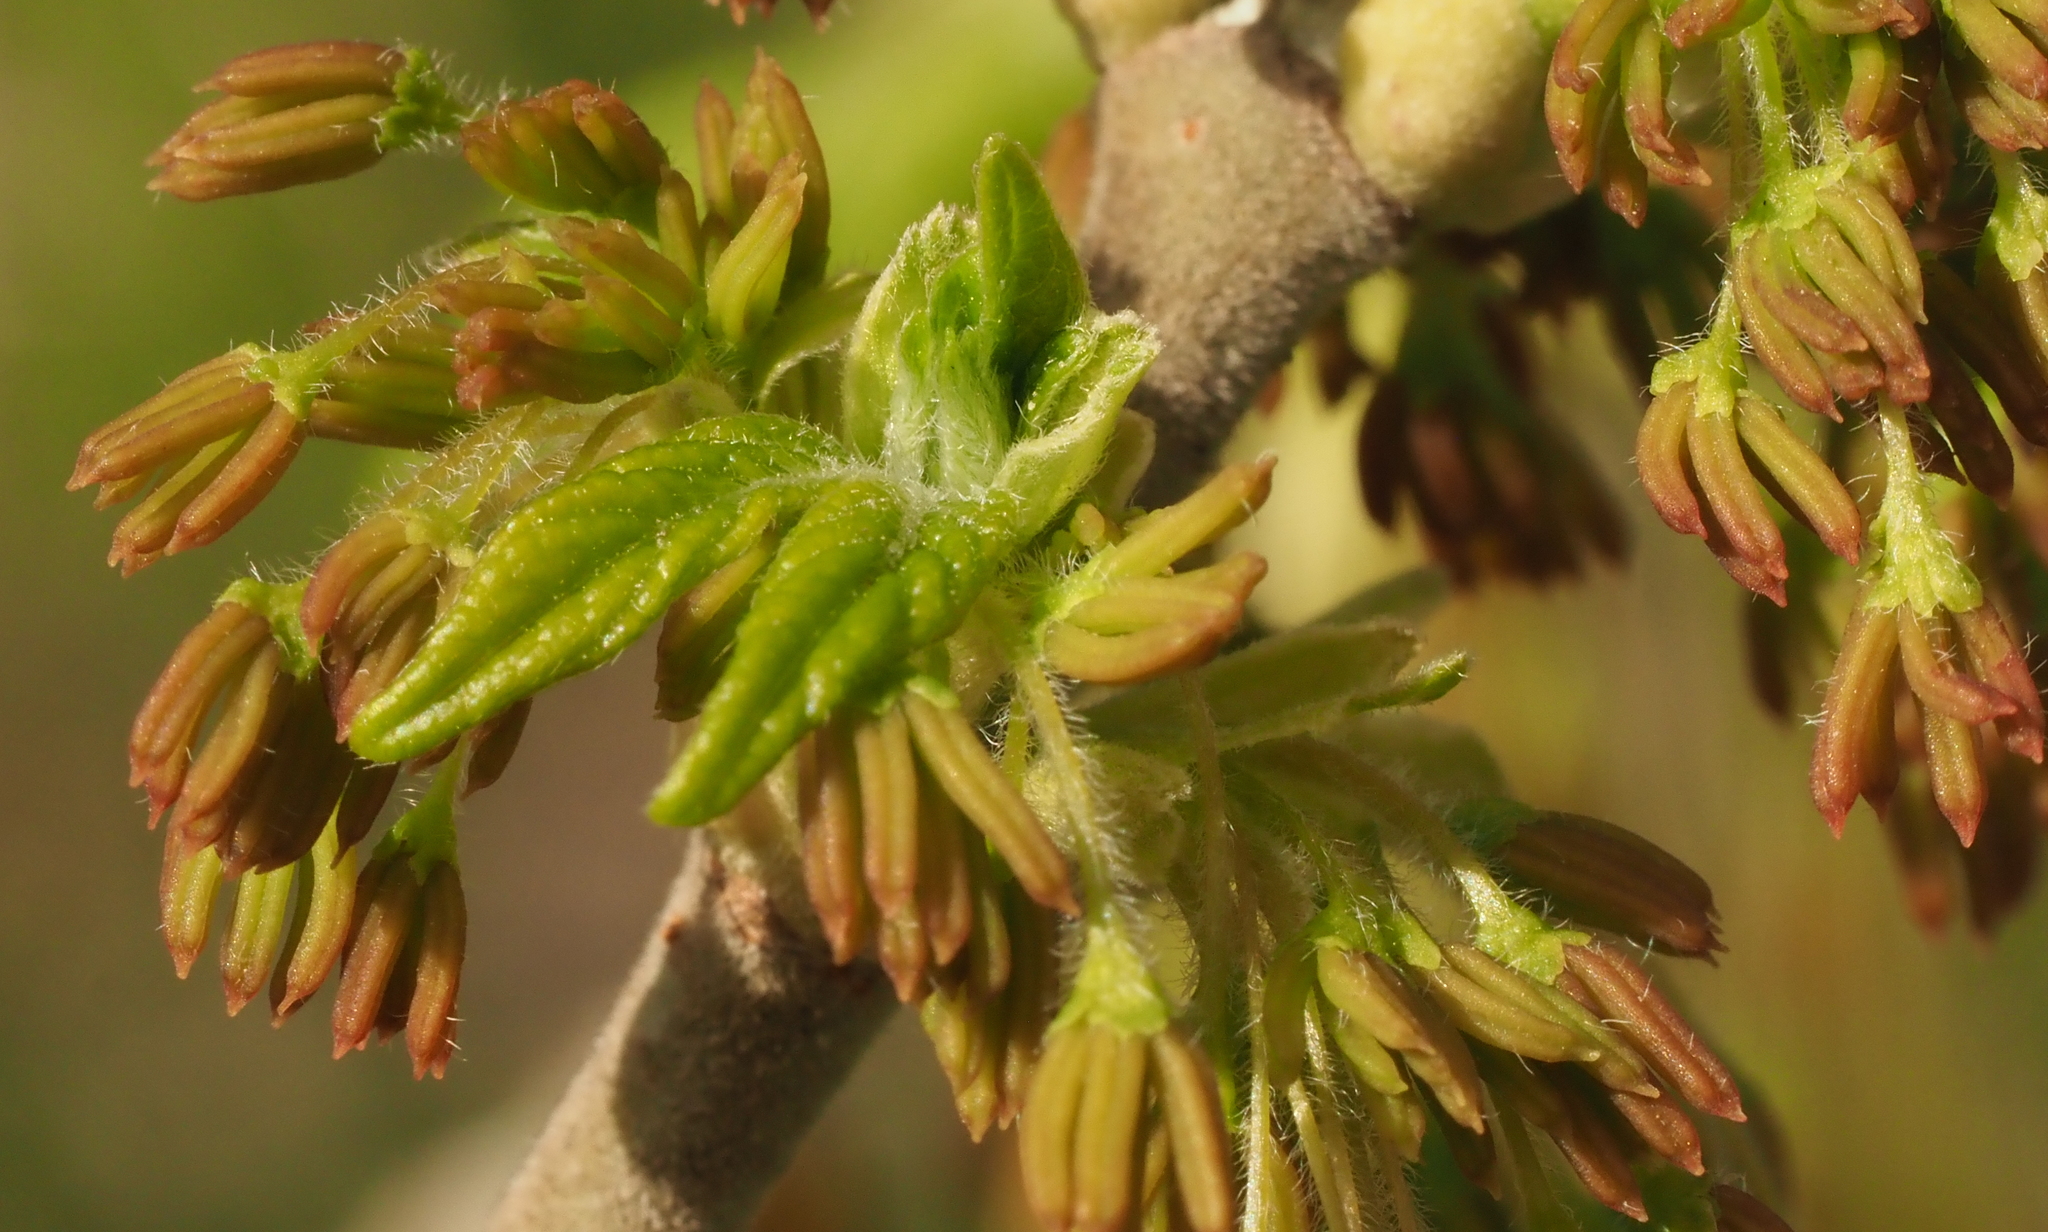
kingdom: Plantae
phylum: Tracheophyta
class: Magnoliopsida
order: Sapindales
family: Sapindaceae
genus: Acer
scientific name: Acer negundo
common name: Ashleaf maple
